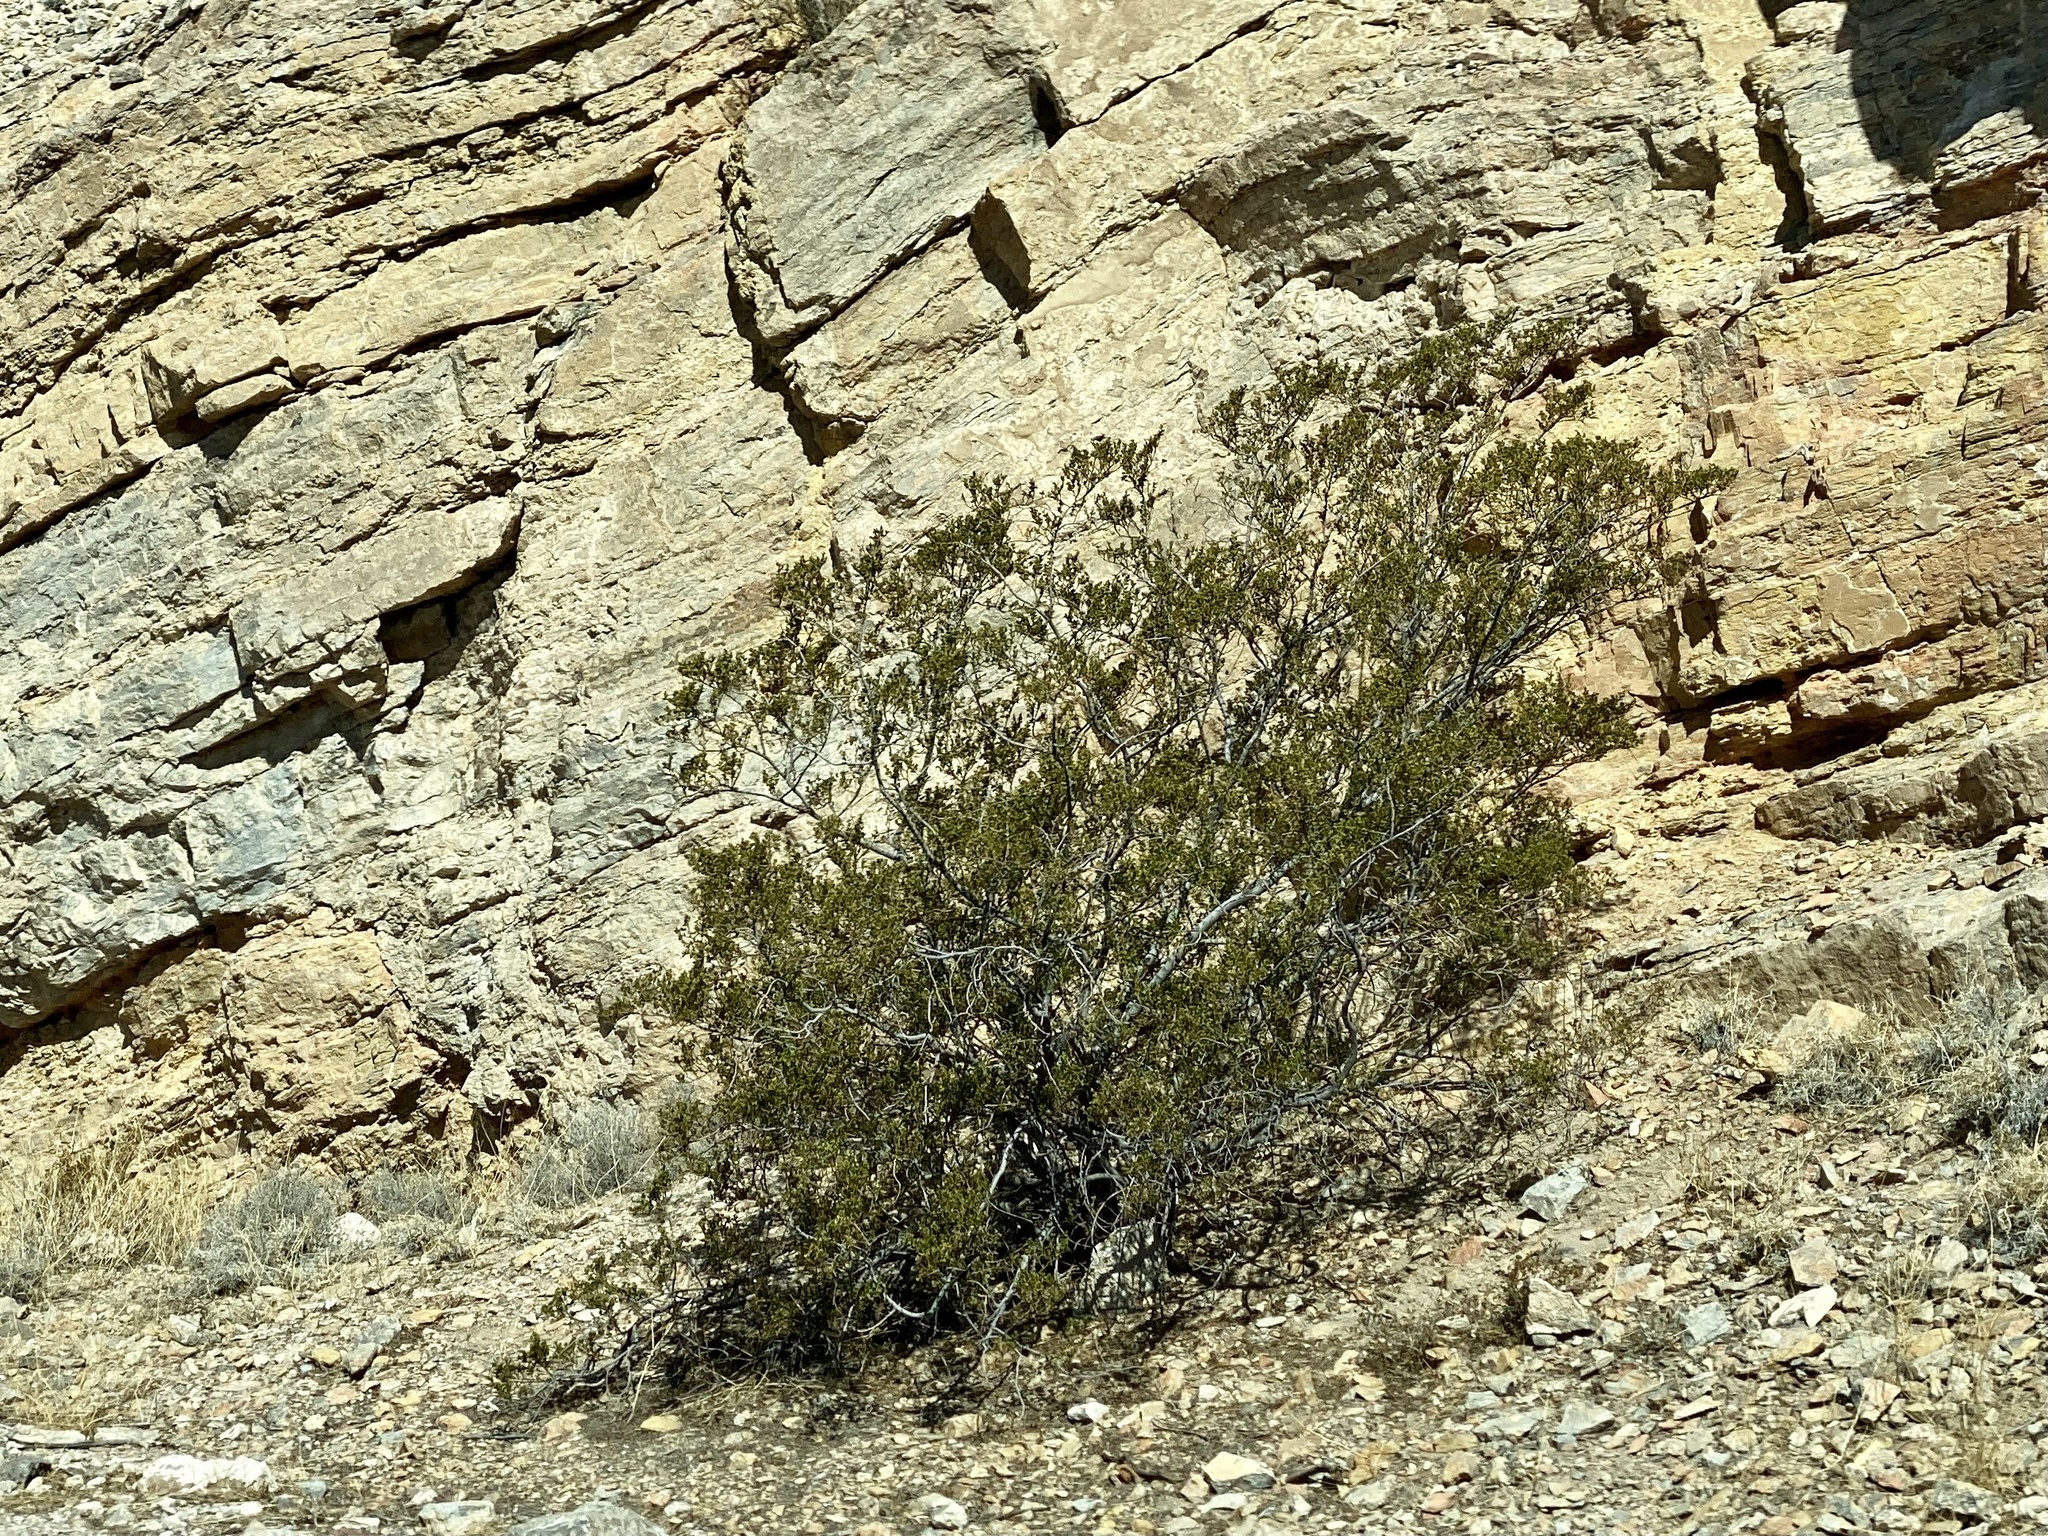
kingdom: Plantae
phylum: Tracheophyta
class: Magnoliopsida
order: Zygophyllales
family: Zygophyllaceae
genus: Larrea
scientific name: Larrea tridentata
